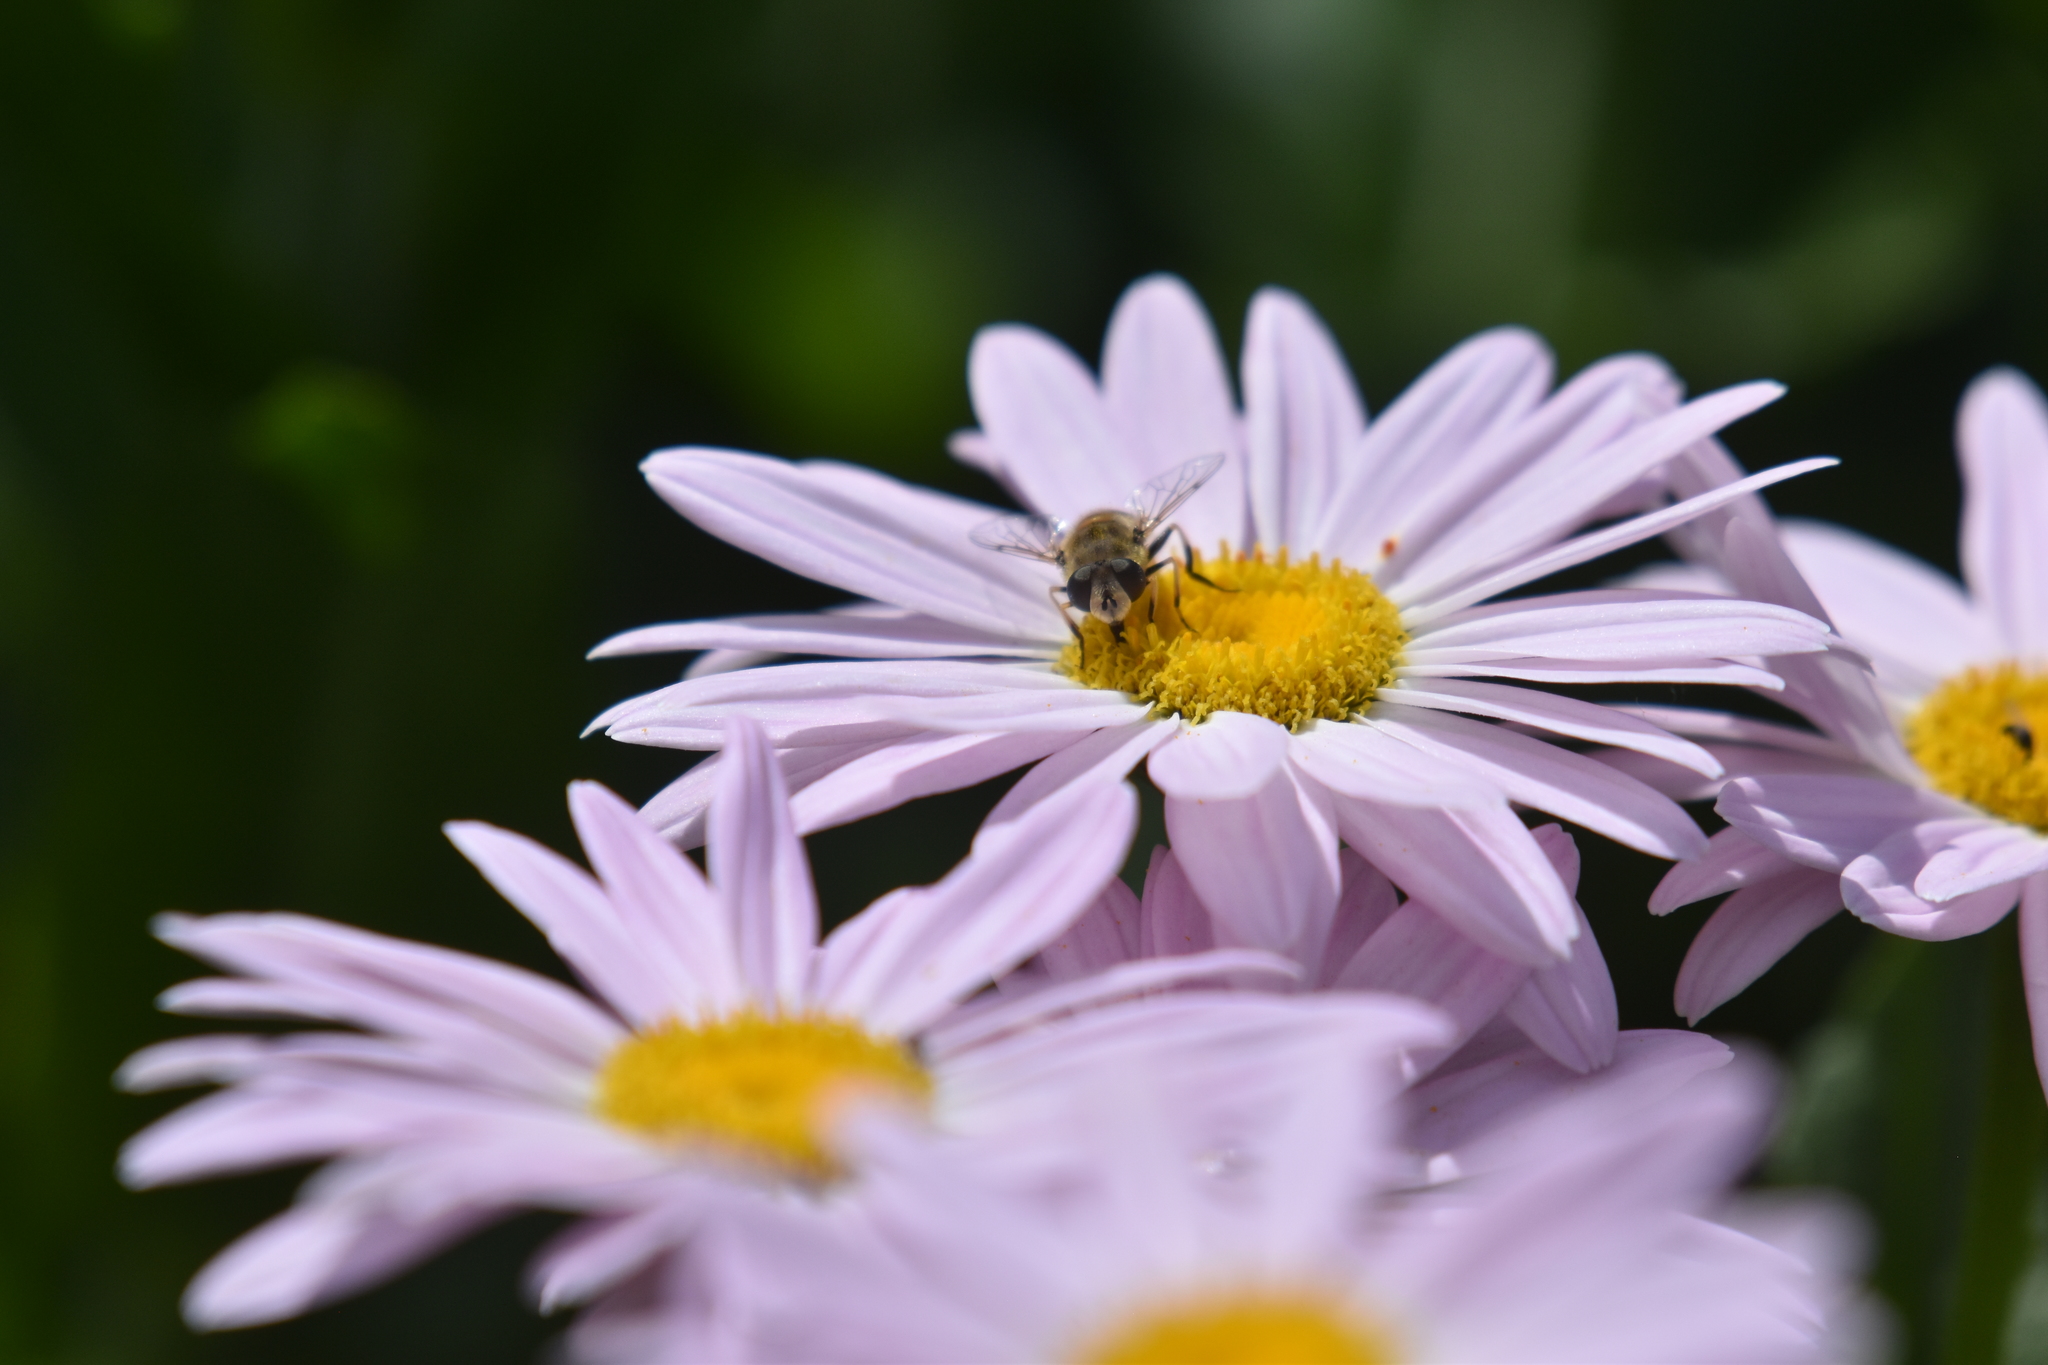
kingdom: Animalia
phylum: Arthropoda
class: Insecta
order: Diptera
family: Syrphidae
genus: Eristalis
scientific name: Eristalis arbustorum
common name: Hover fly
